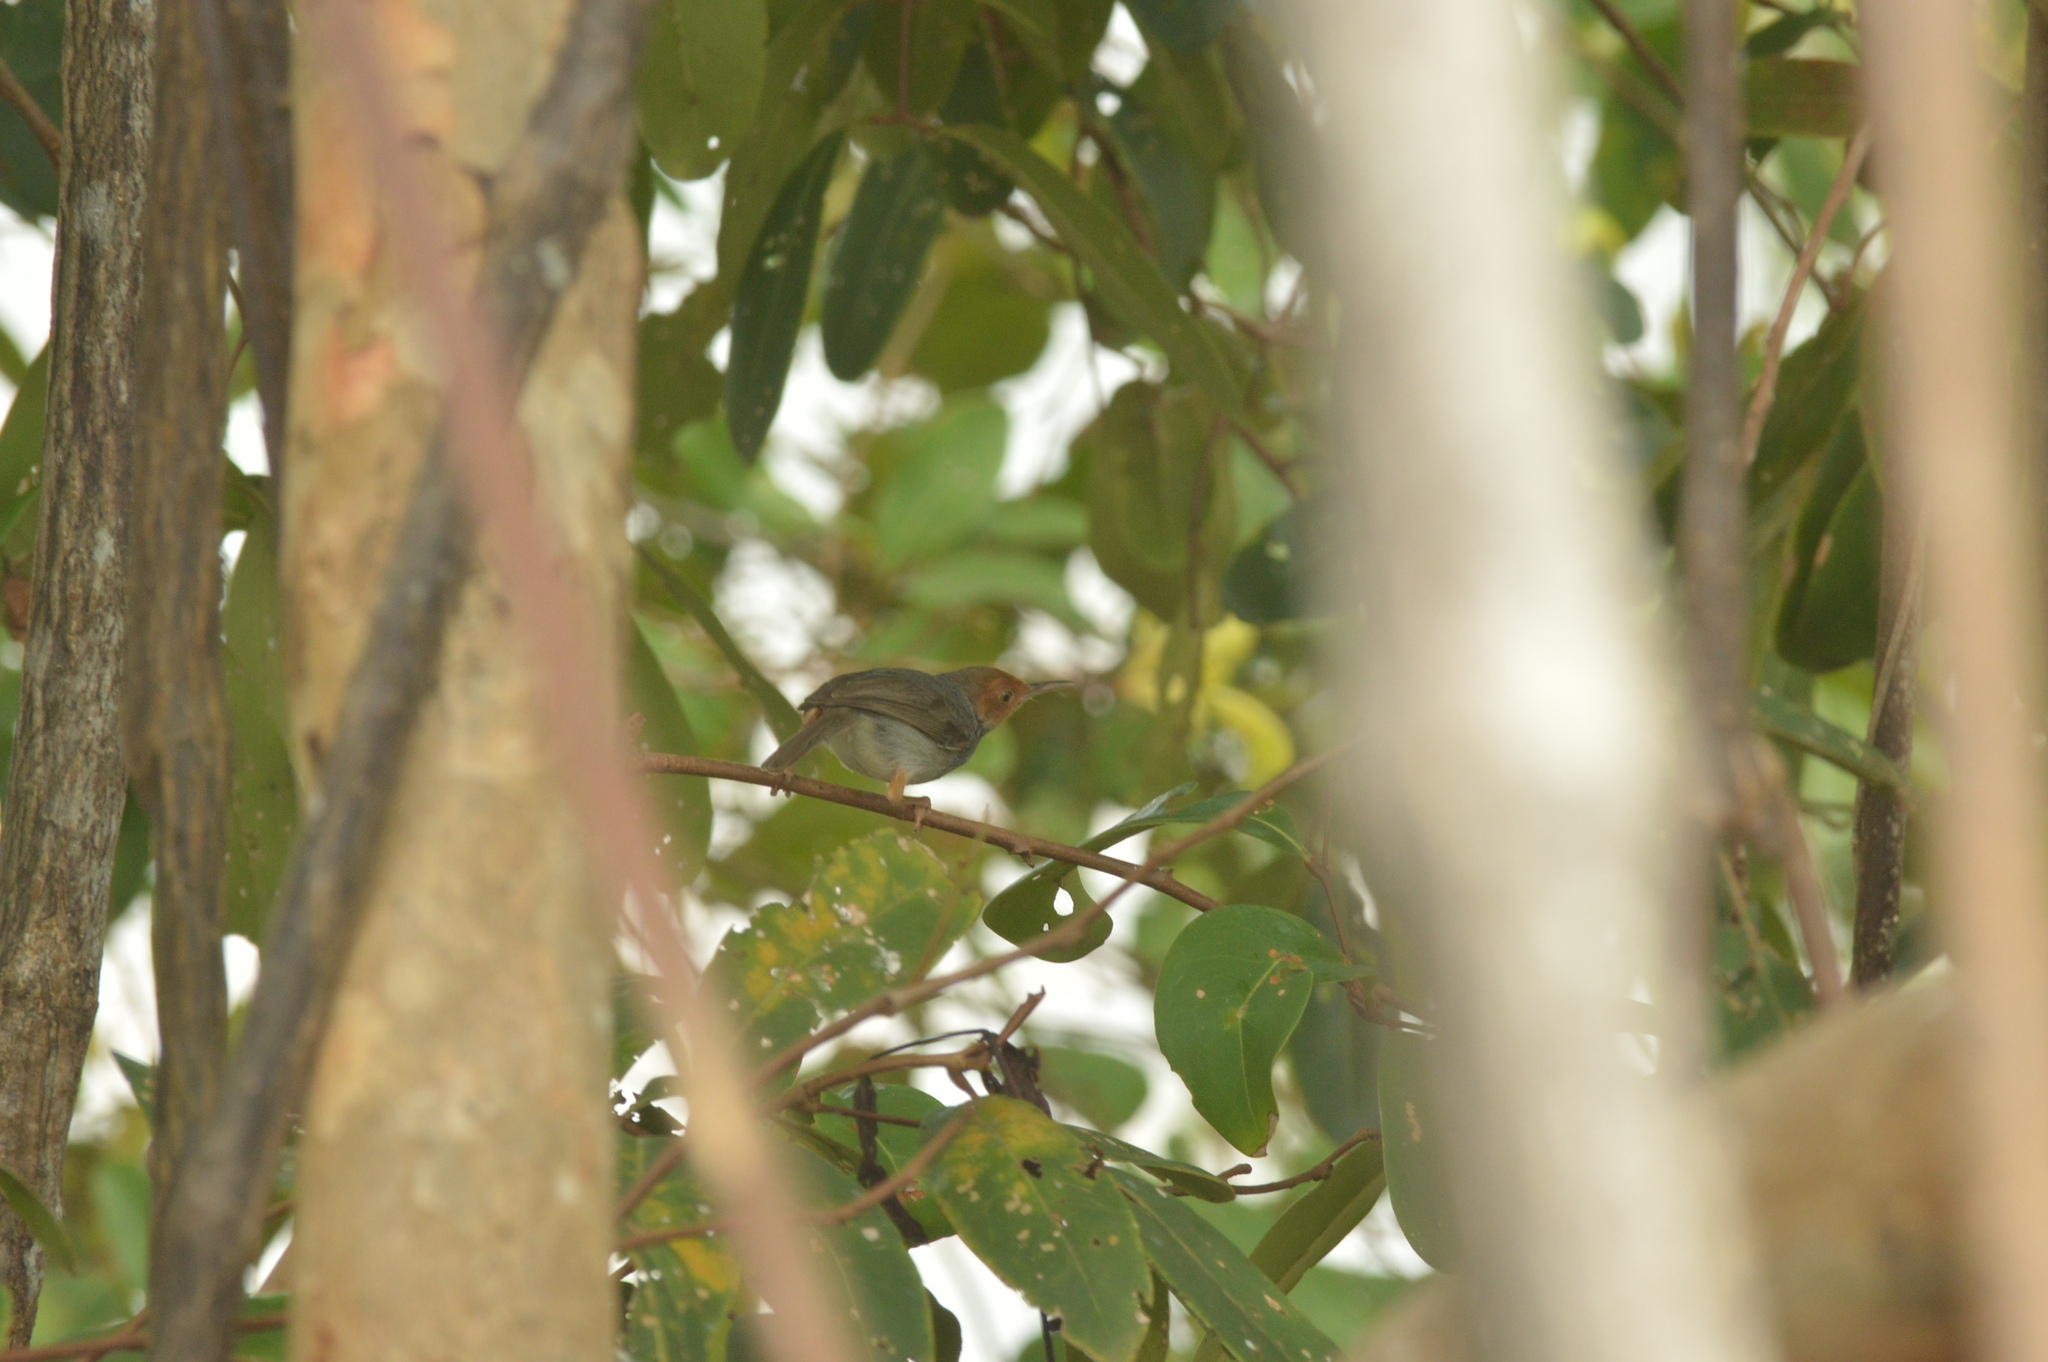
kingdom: Animalia
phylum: Chordata
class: Aves
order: Passeriformes
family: Cisticolidae
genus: Orthotomus
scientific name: Orthotomus ruficeps
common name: Ashy tailorbird
